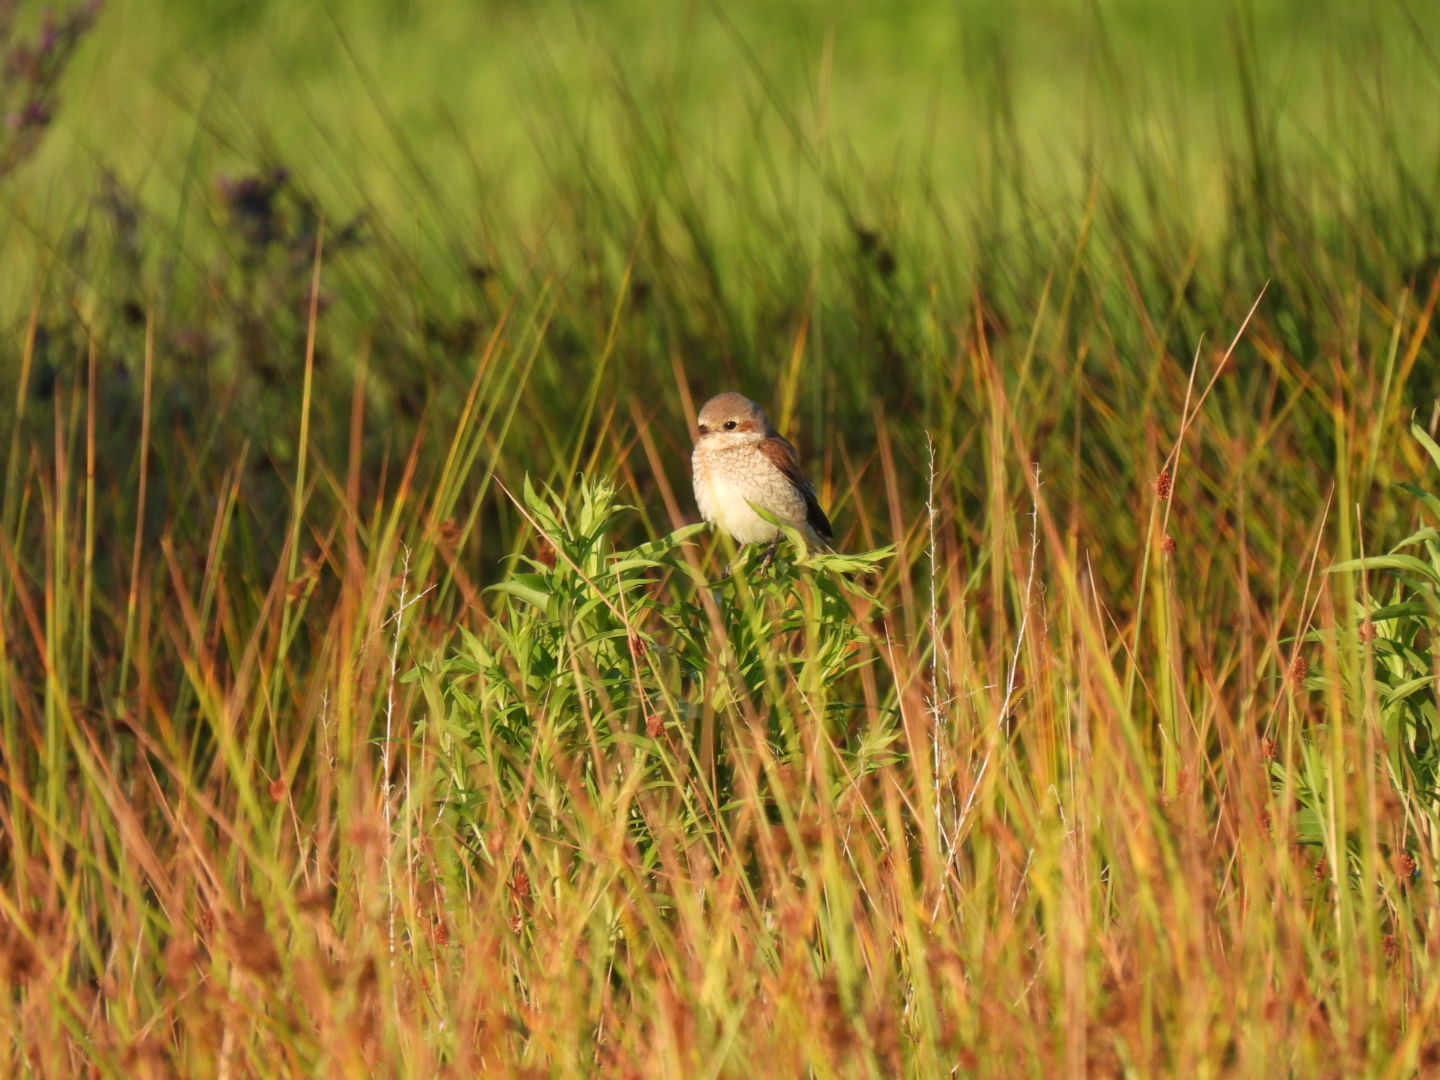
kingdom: Animalia
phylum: Chordata
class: Aves
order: Passeriformes
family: Laniidae
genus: Lanius
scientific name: Lanius collurio
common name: Red-backed shrike
